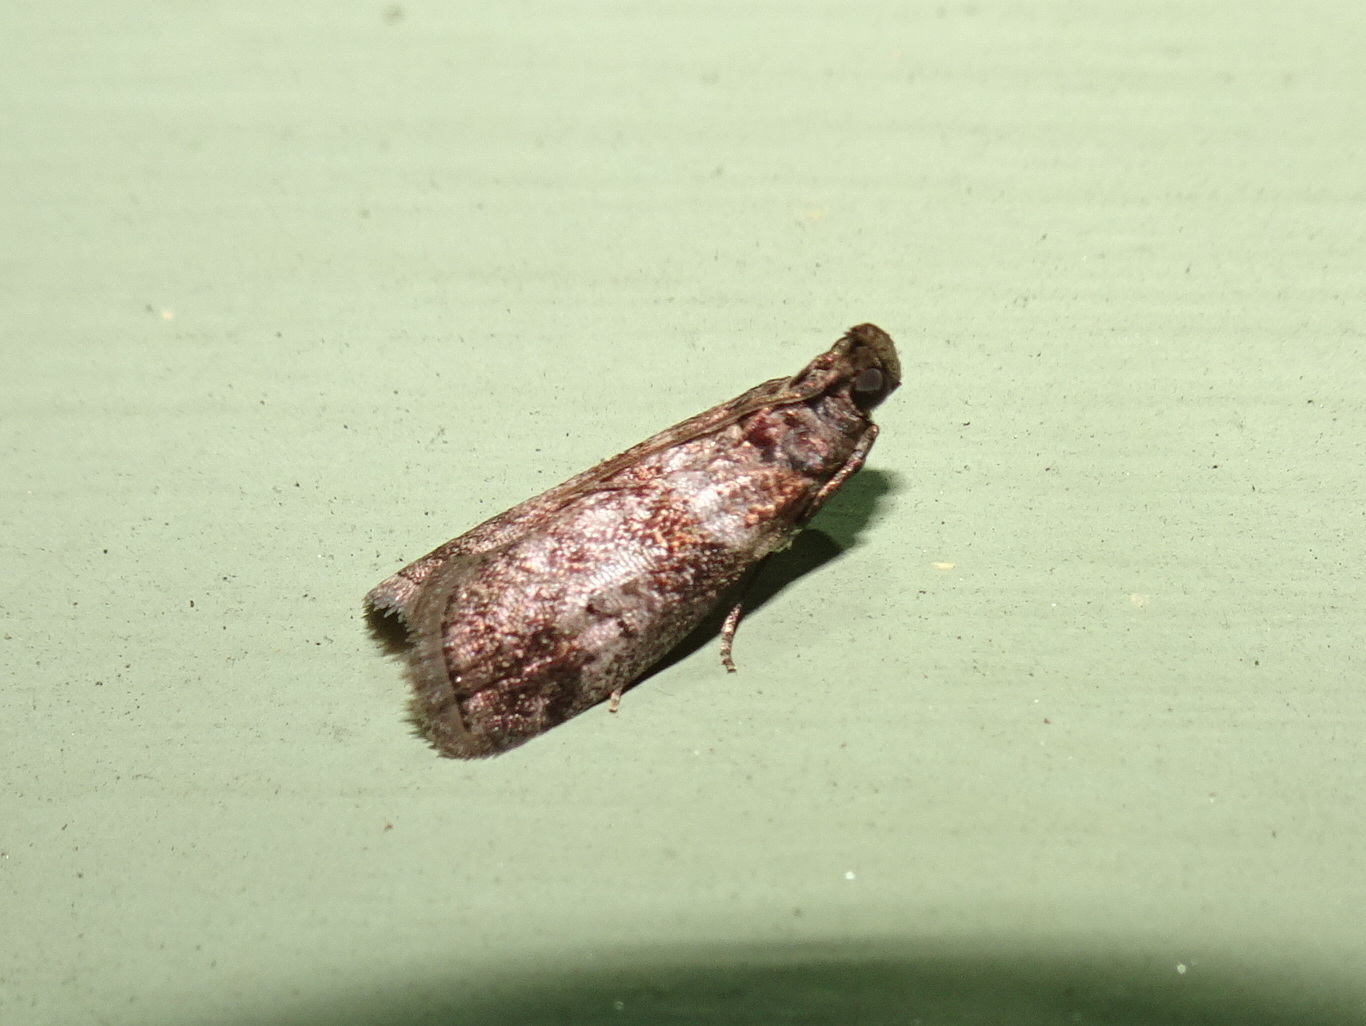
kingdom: Animalia
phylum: Arthropoda
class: Insecta
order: Lepidoptera
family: Pyralidae
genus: Sciota
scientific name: Sciota uvinella
